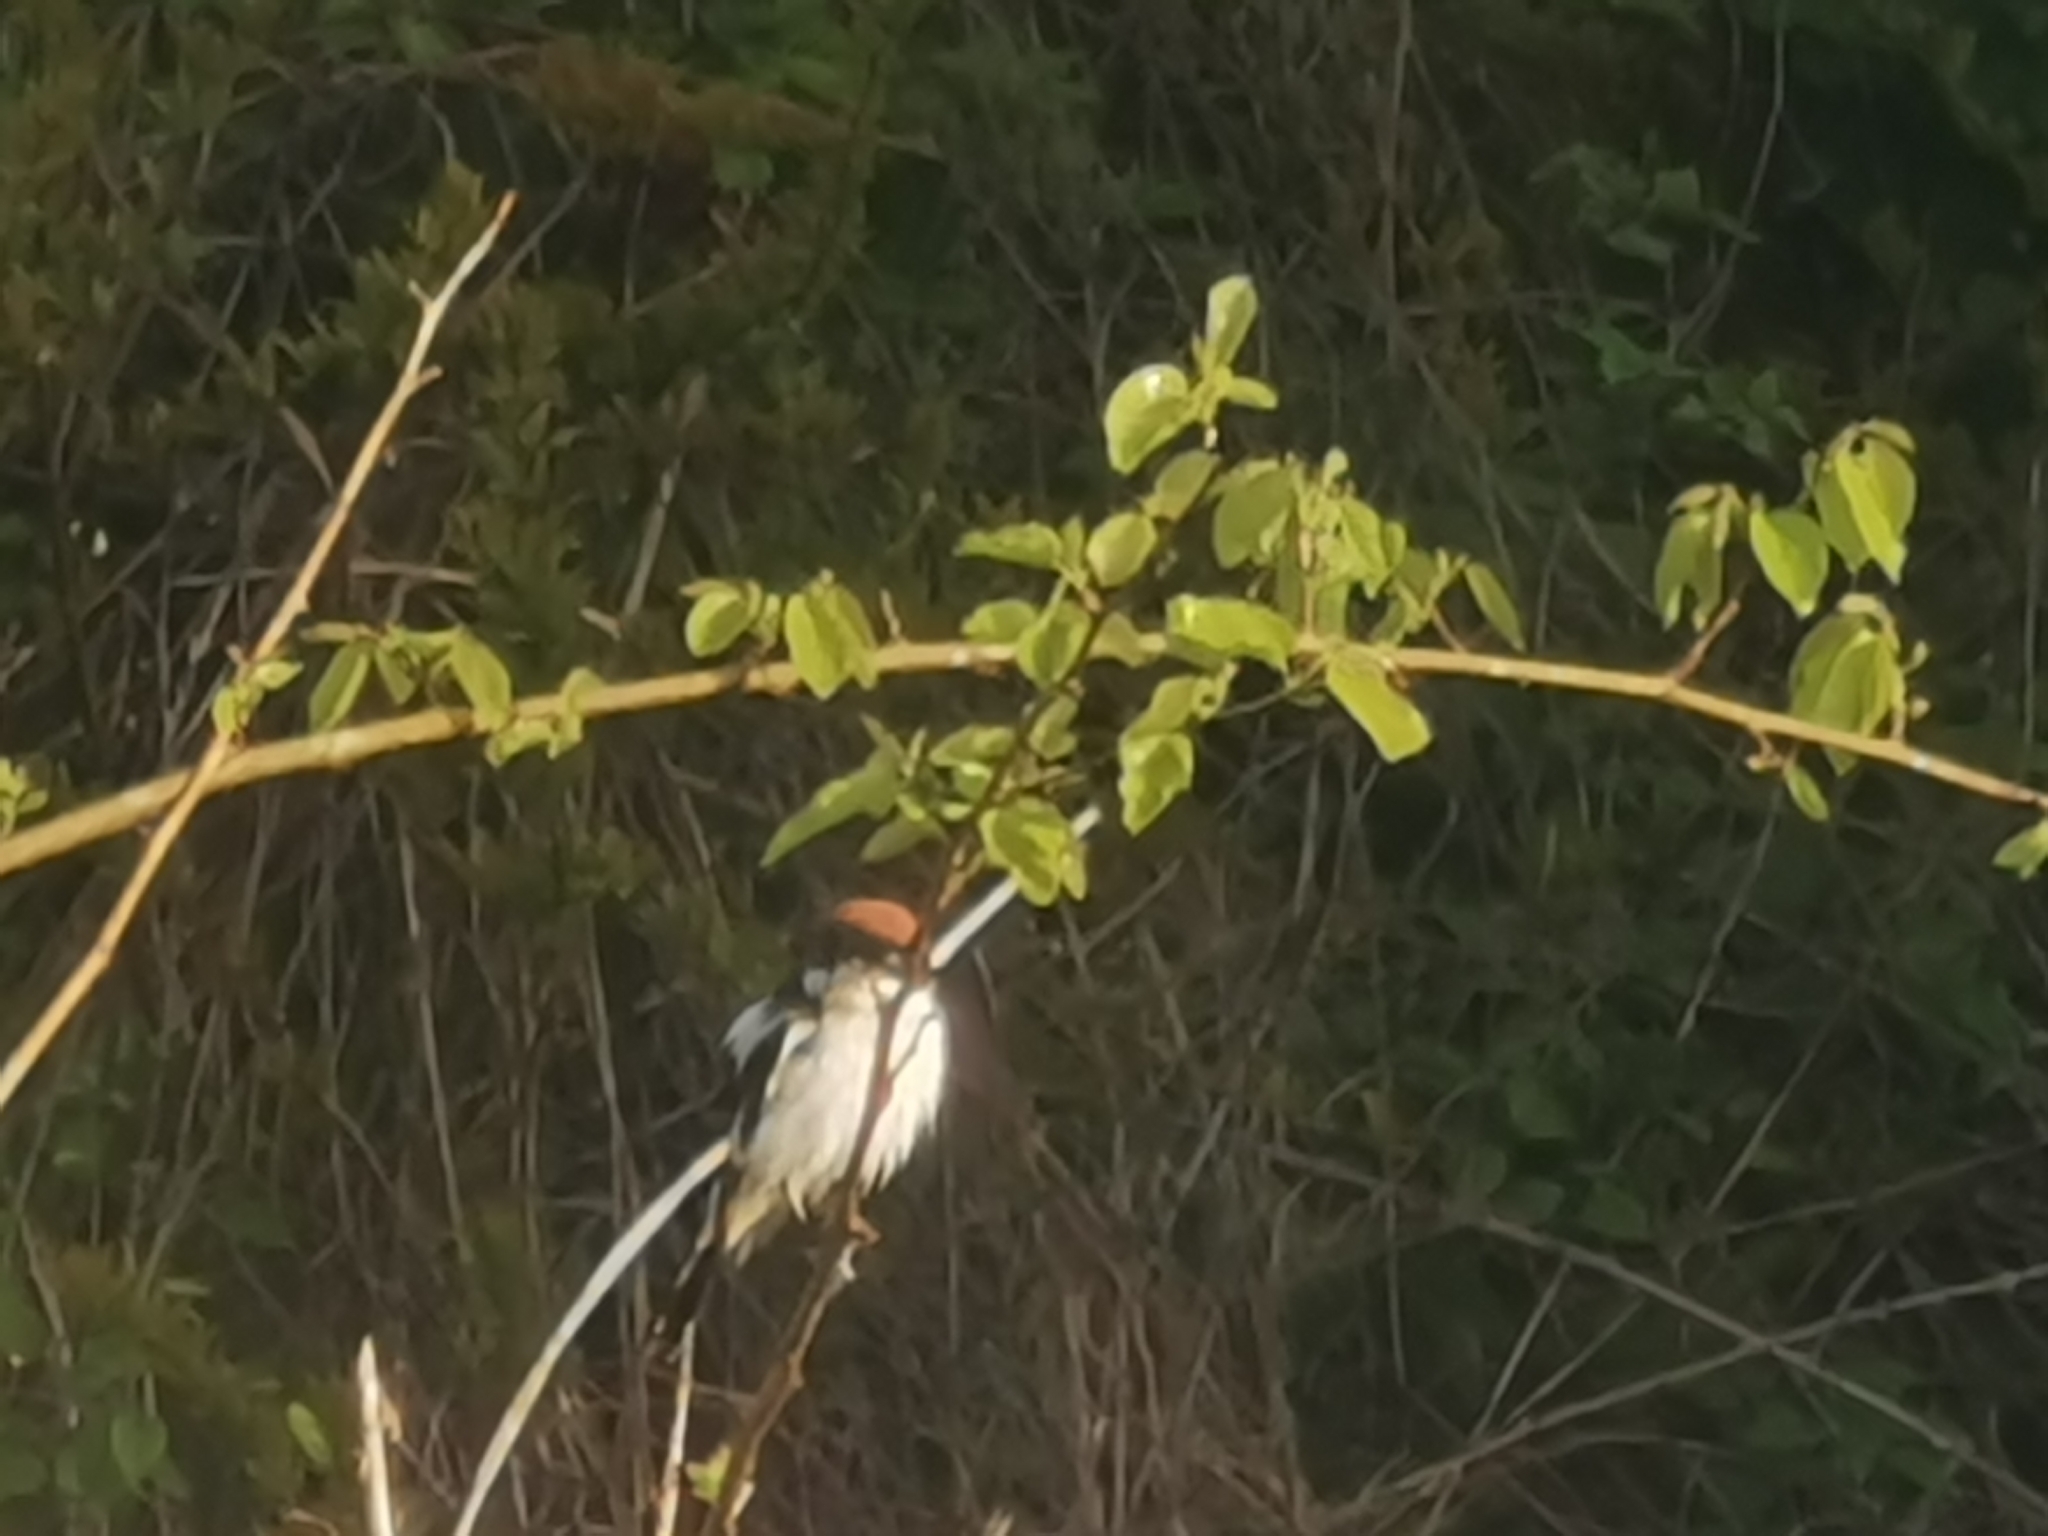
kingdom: Animalia
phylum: Chordata
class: Aves
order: Passeriformes
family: Laniidae
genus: Lanius
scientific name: Lanius senator
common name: Woodchat shrike
